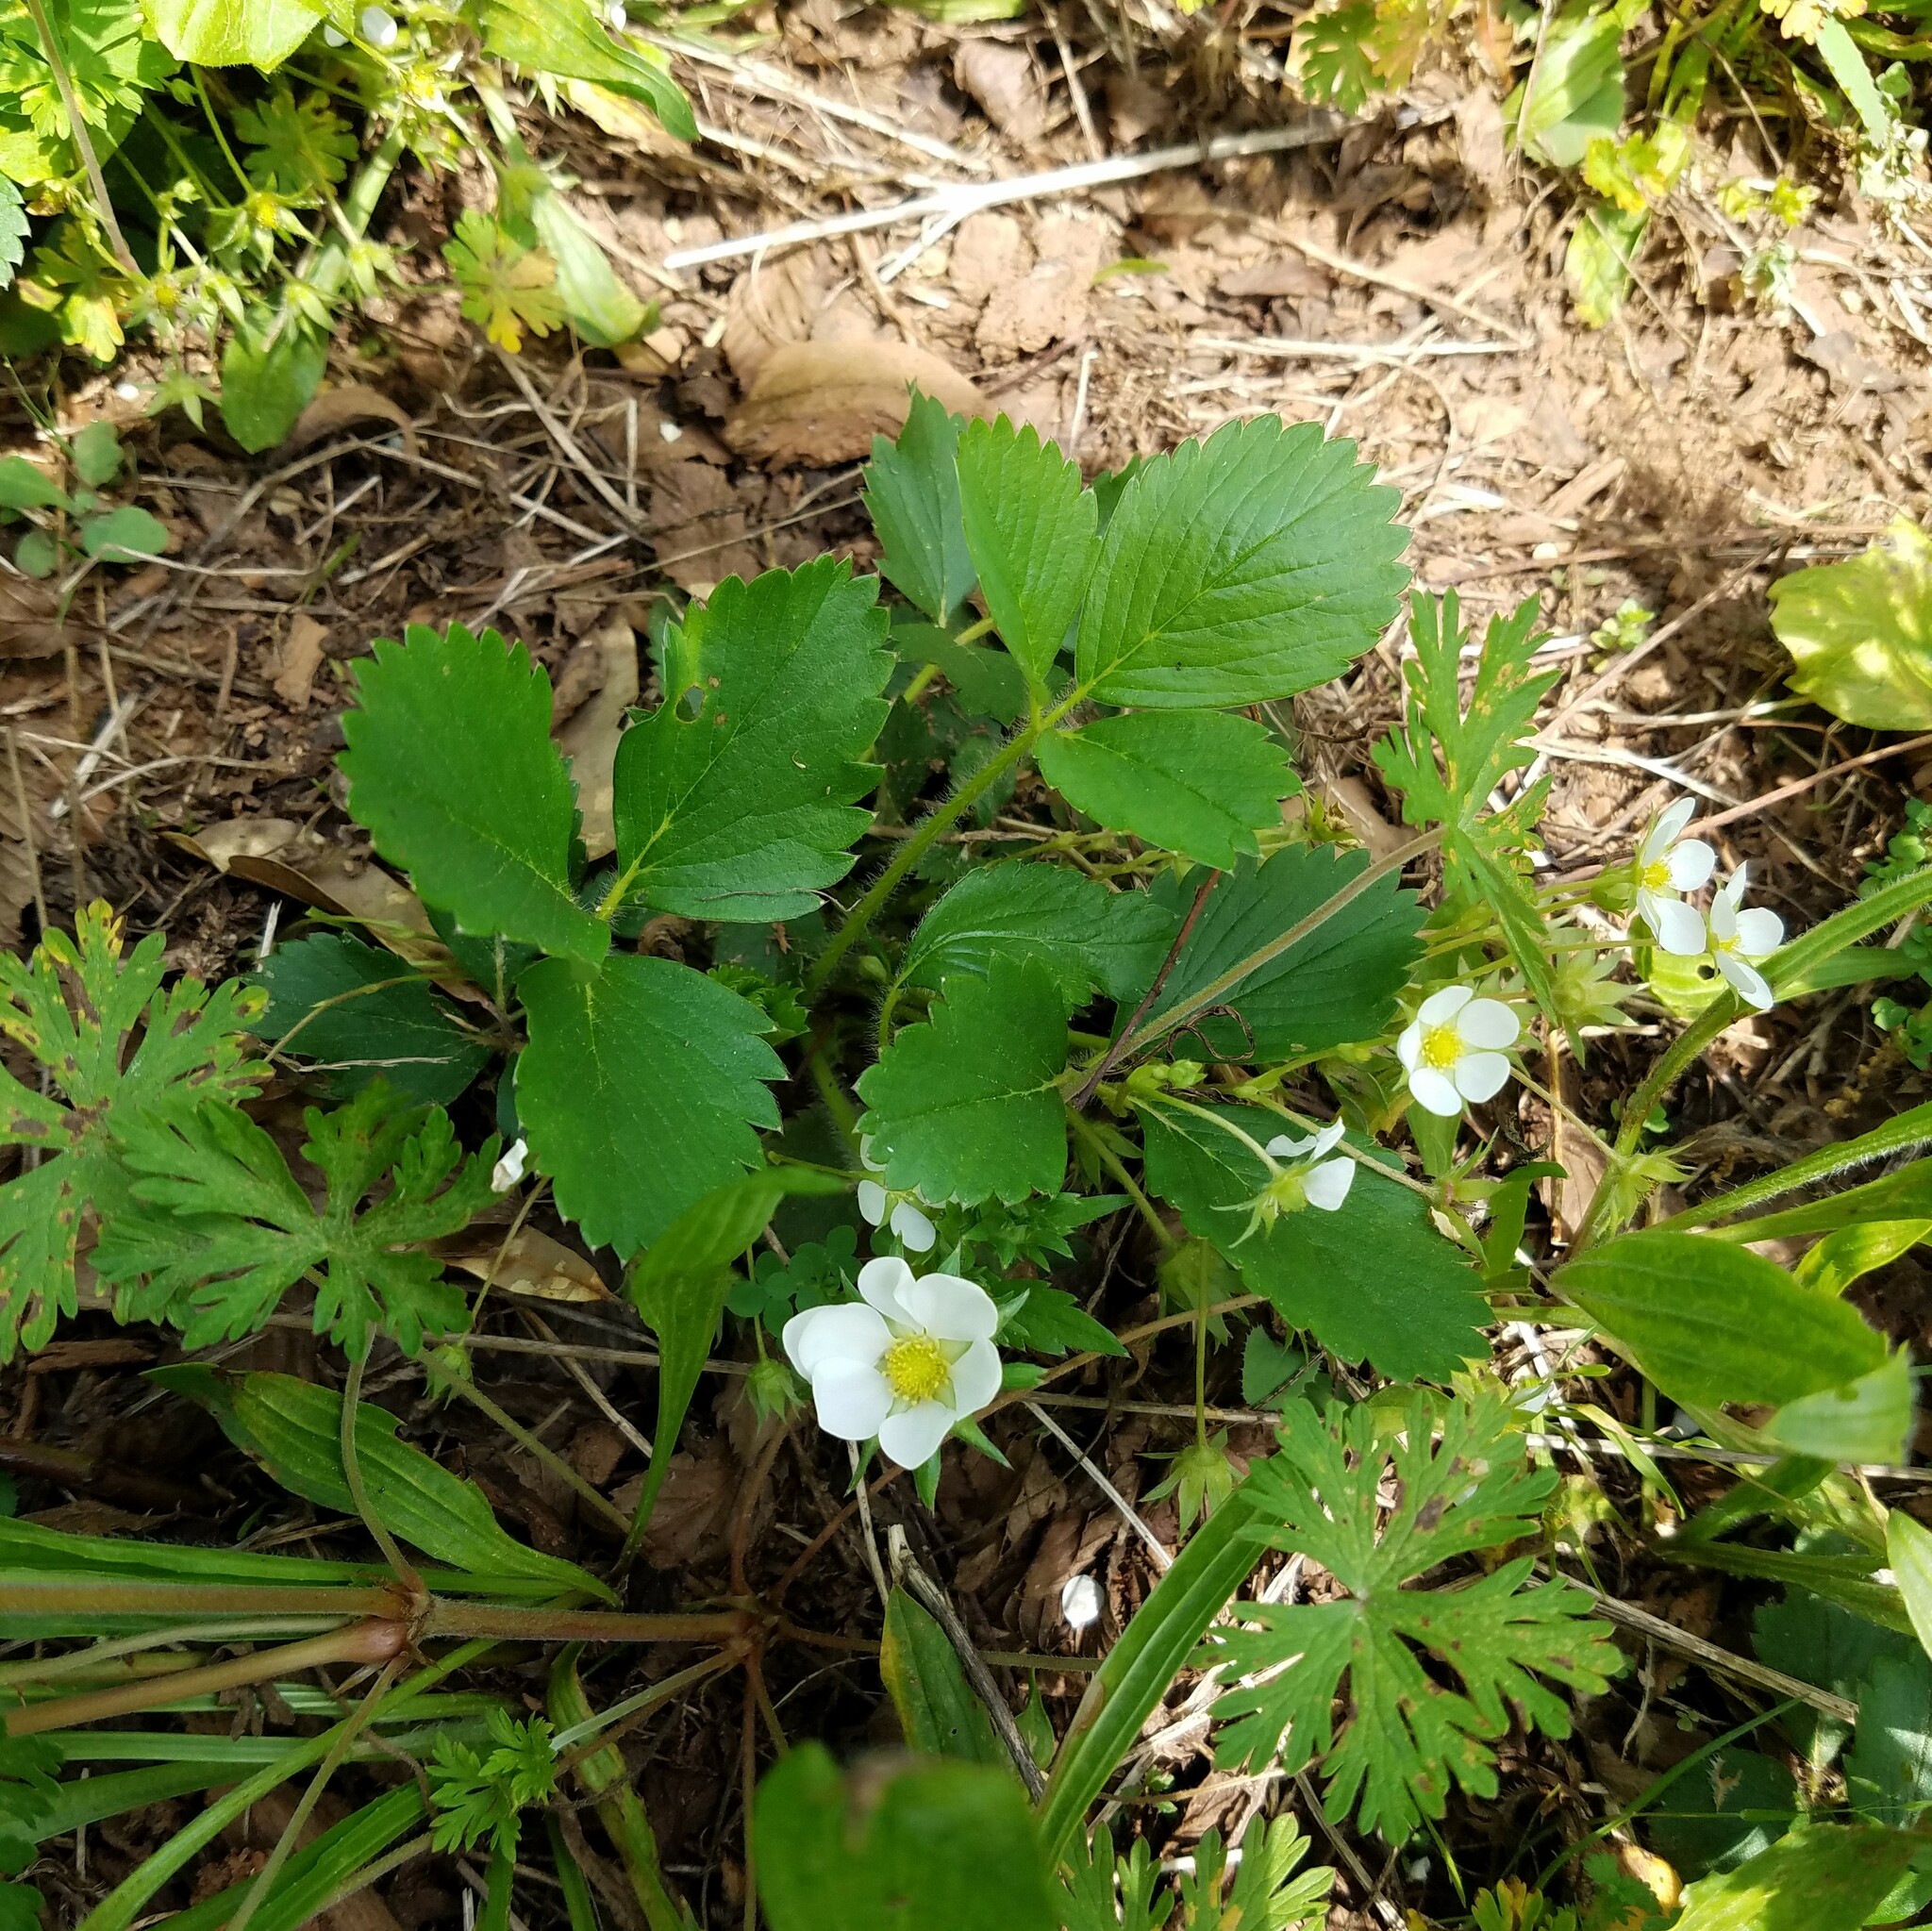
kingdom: Plantae
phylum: Tracheophyta
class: Magnoliopsida
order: Rosales
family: Rosaceae
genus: Fragaria
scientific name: Fragaria virginiana
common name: Thickleaved wild strawberry
